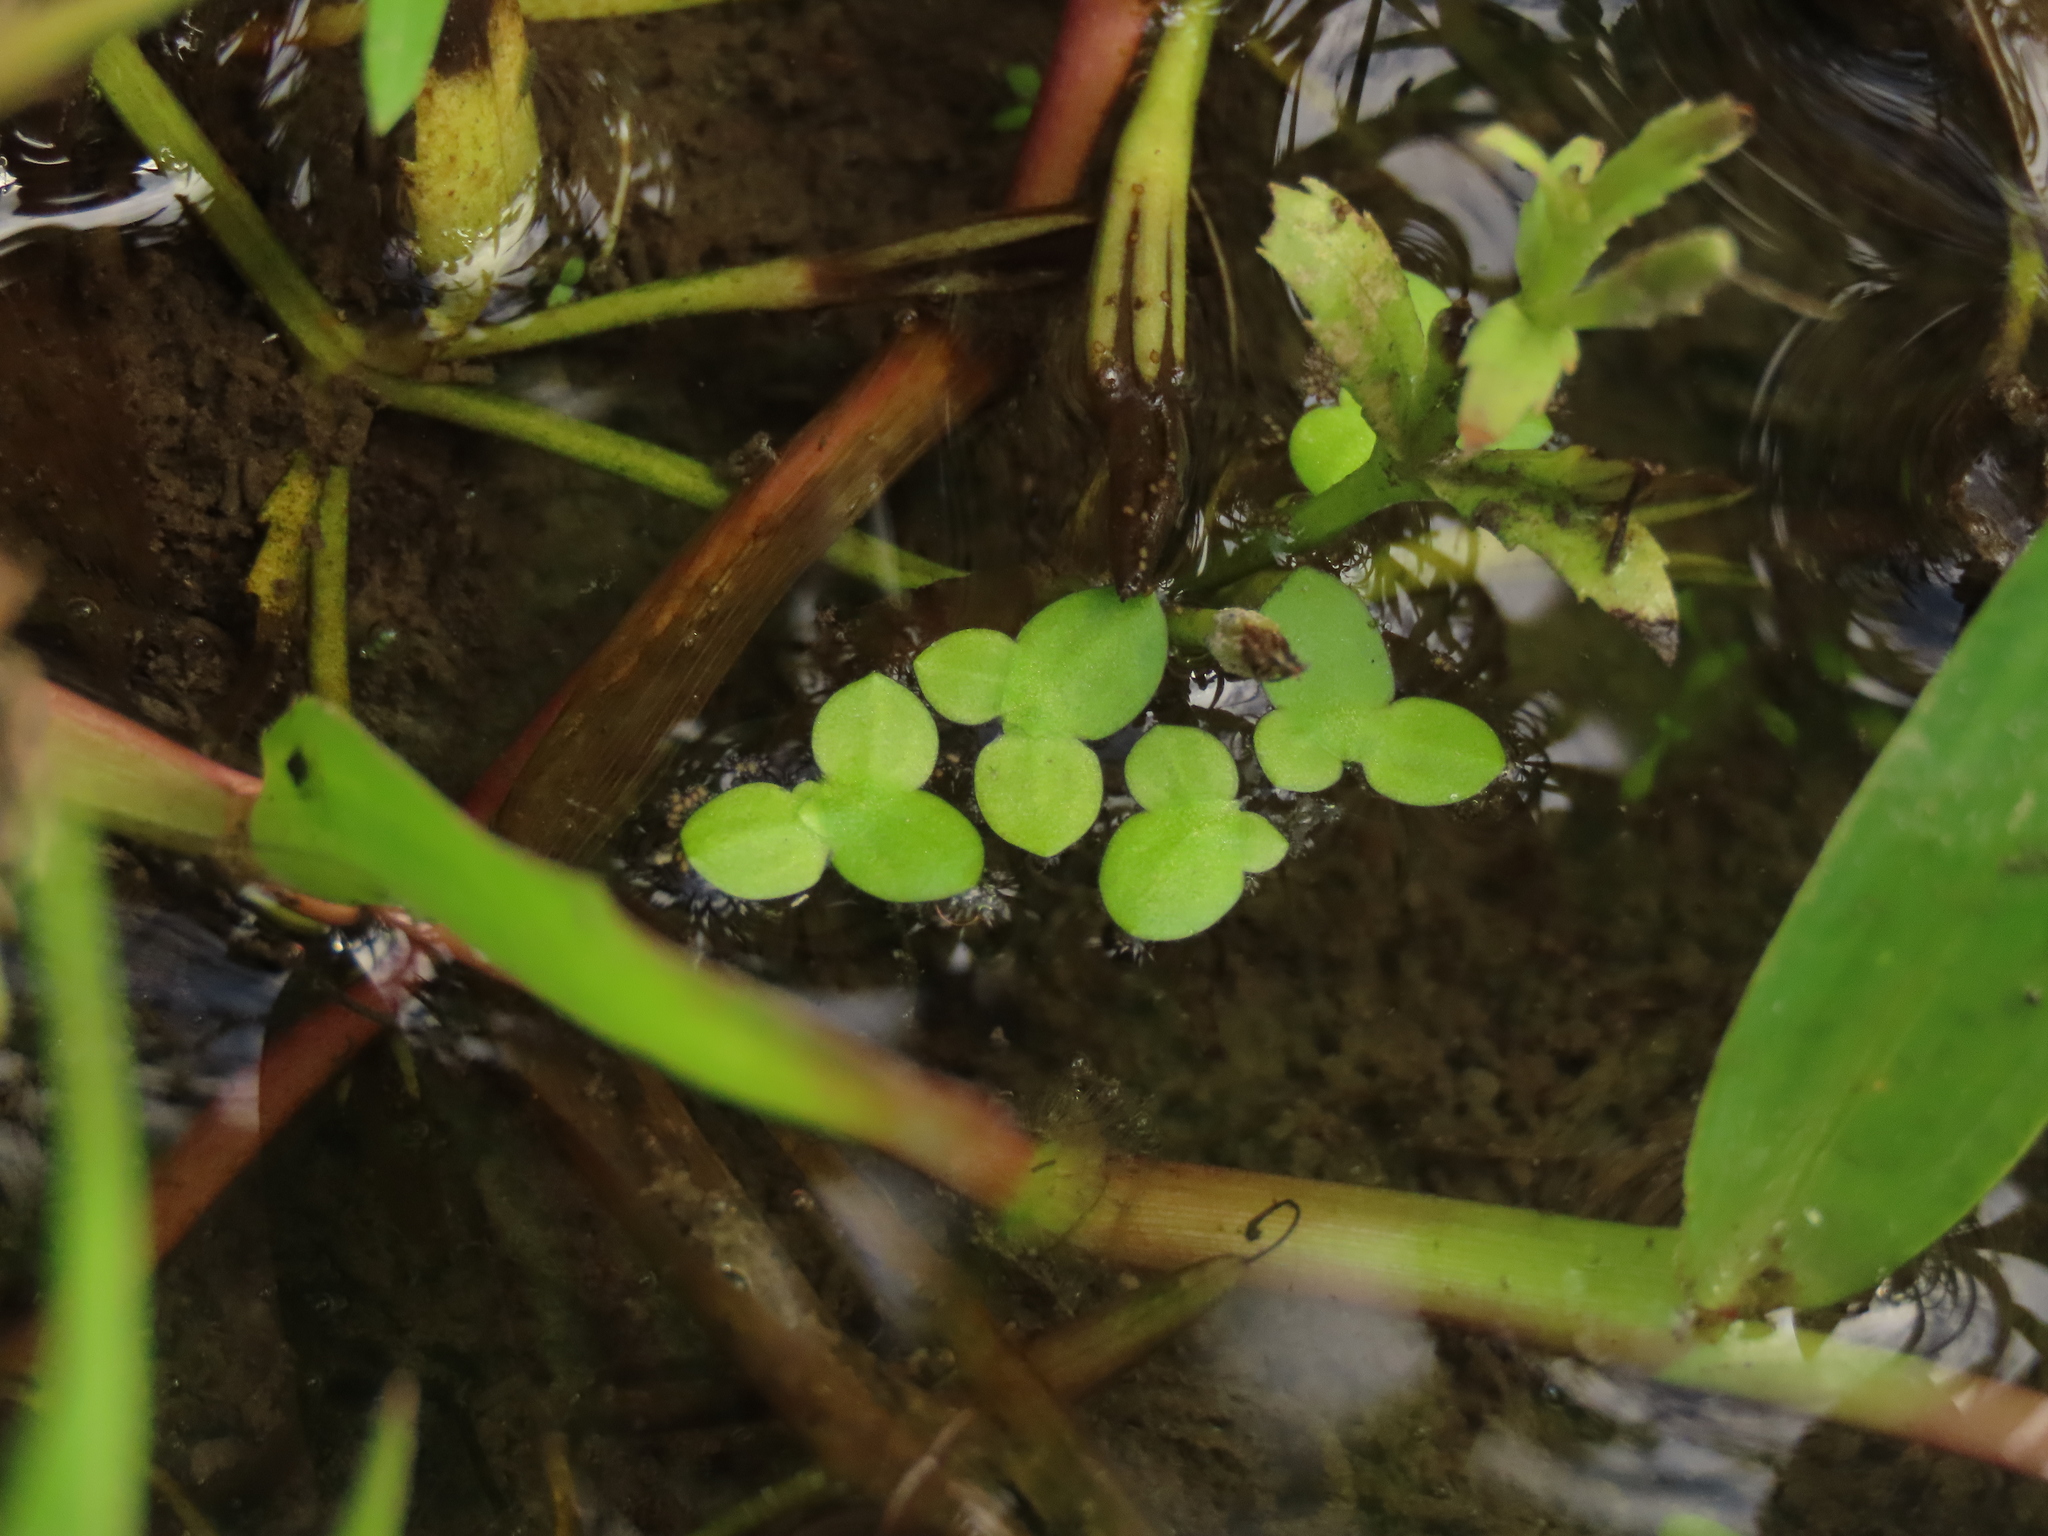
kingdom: Plantae
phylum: Tracheophyta
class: Liliopsida
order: Alismatales
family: Araceae
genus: Lemna
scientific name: Lemna aequinoctialis
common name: Duckweed
